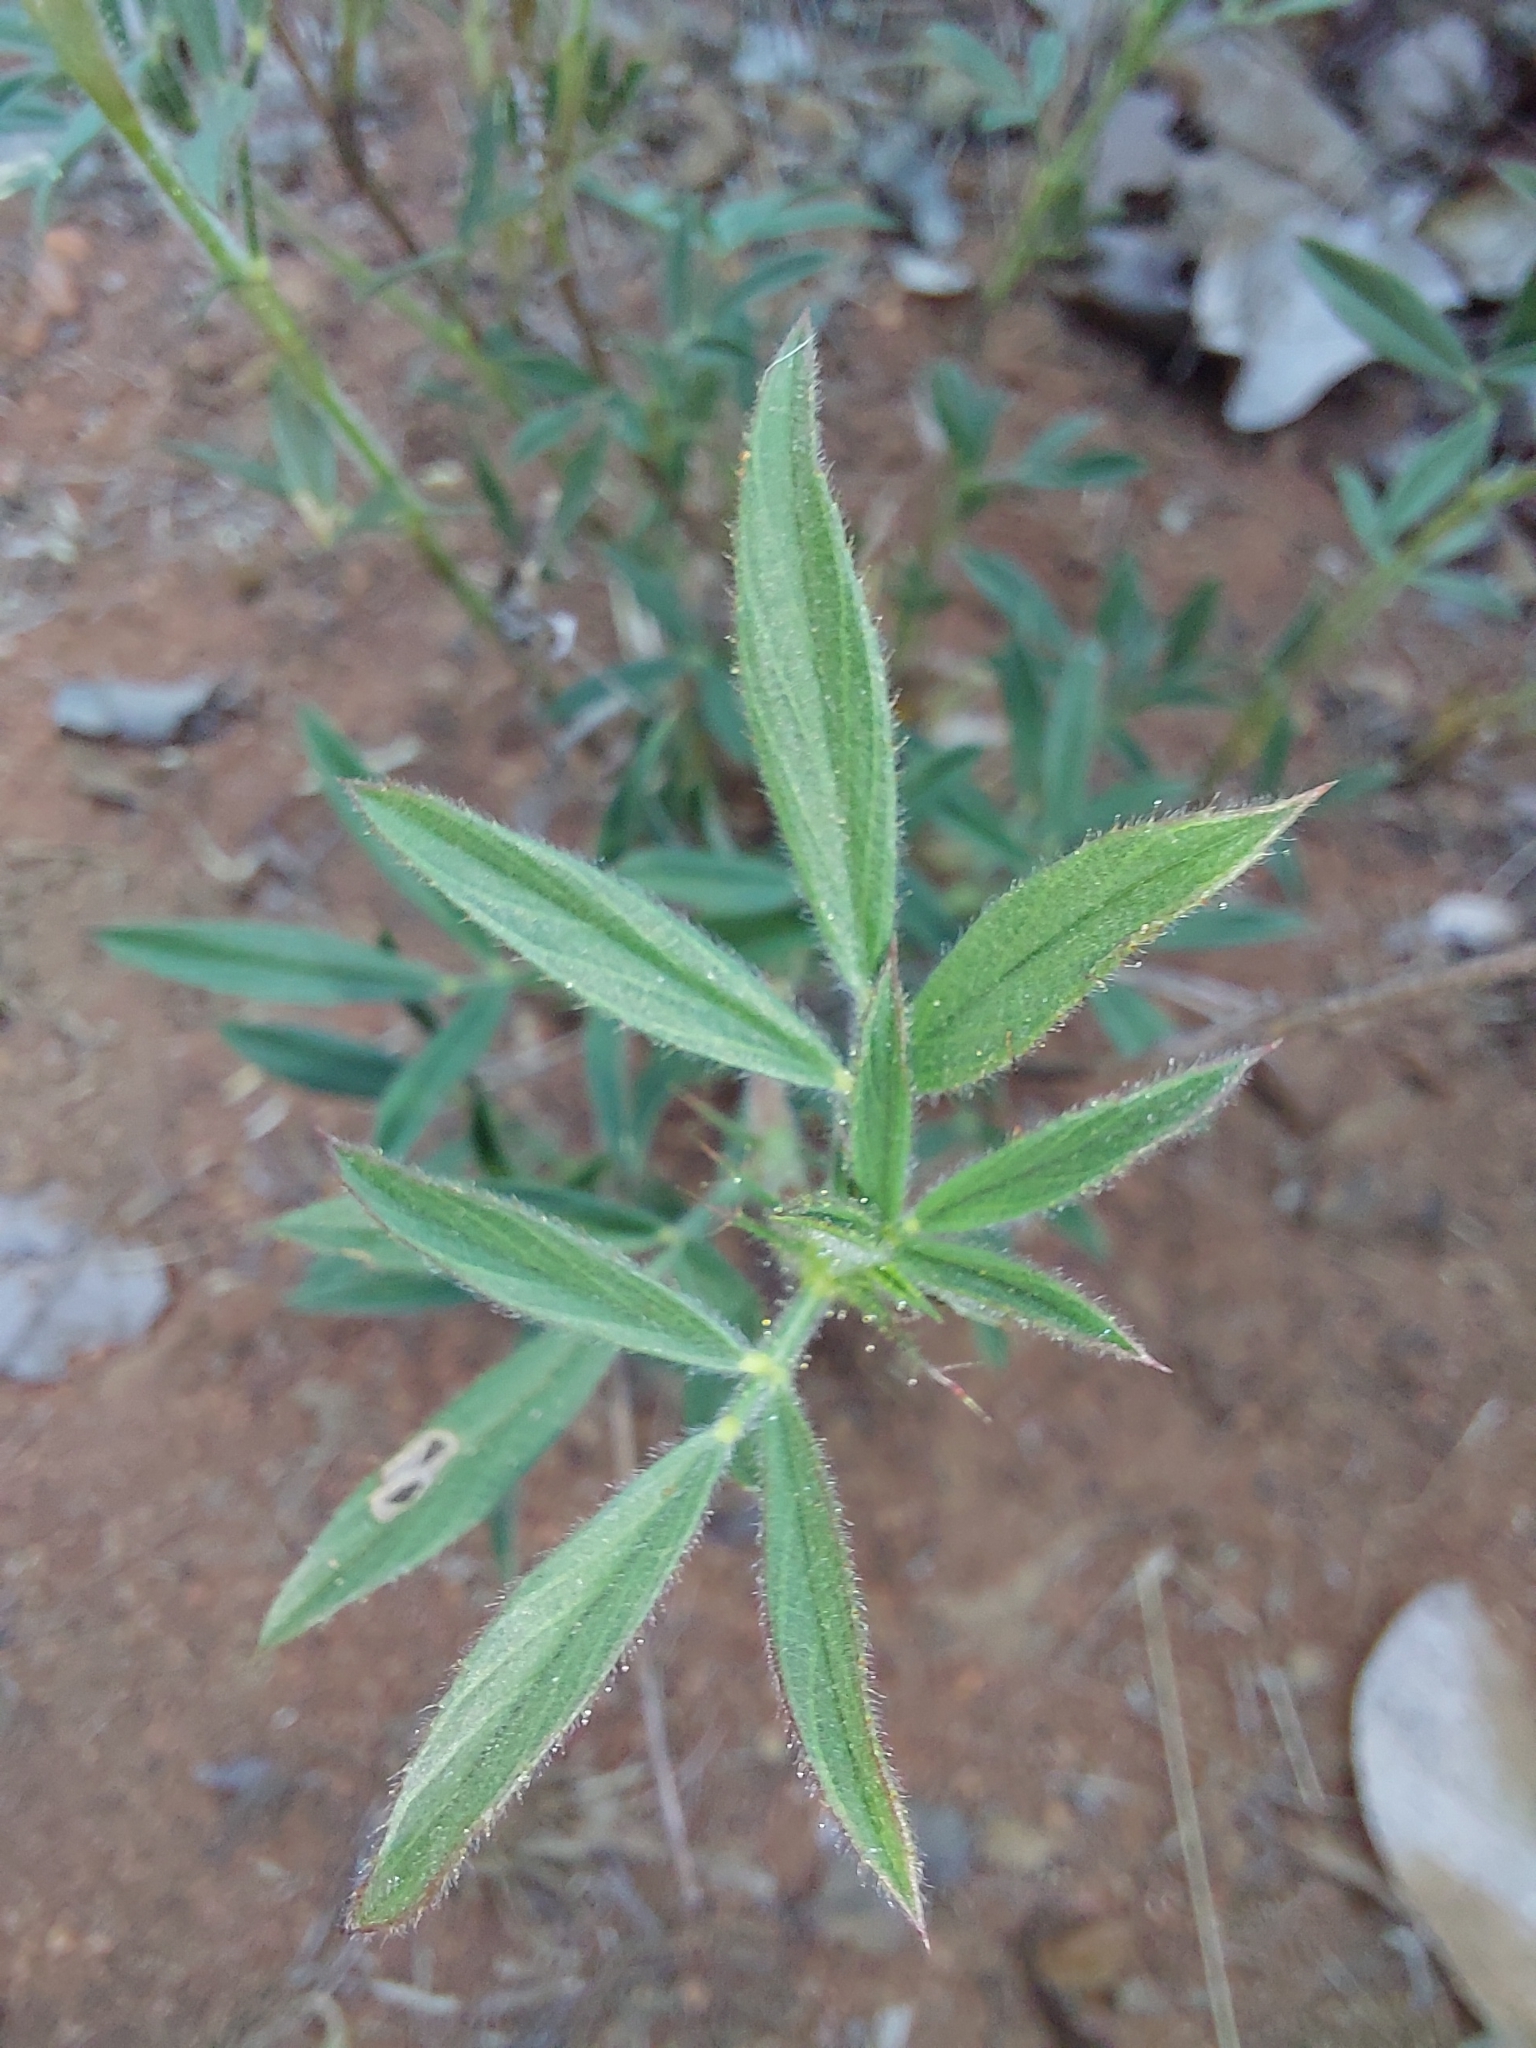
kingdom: Plantae
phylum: Tracheophyta
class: Magnoliopsida
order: Fabales
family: Fabaceae
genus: Stylosanthes
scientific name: Stylosanthes fruticosa
